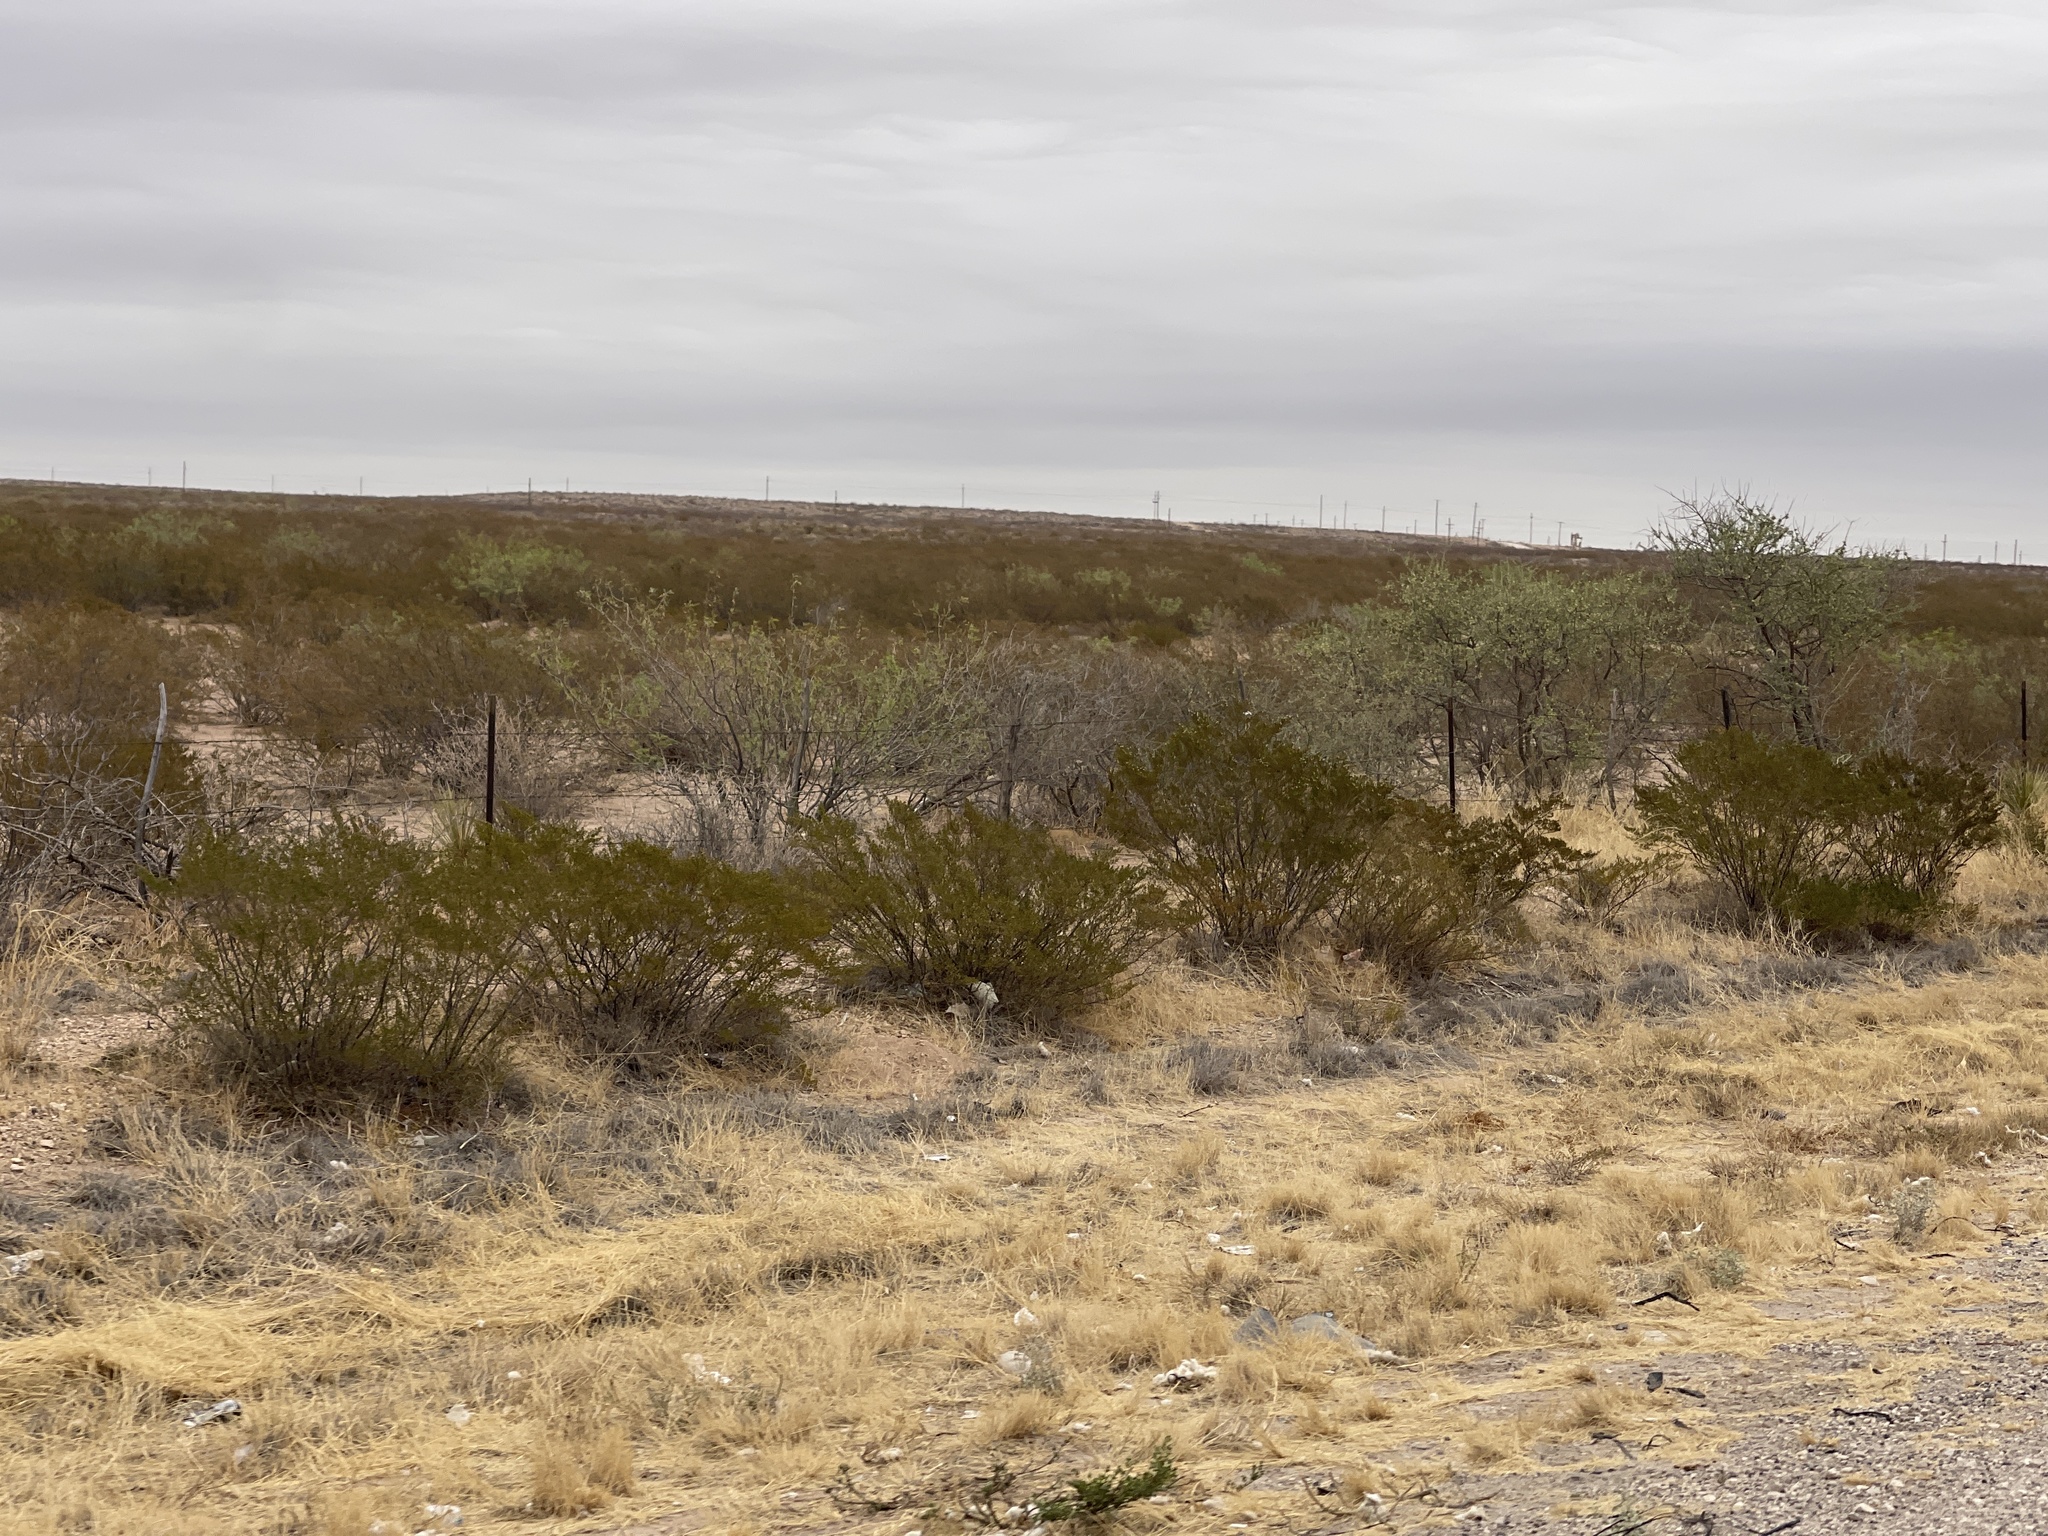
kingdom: Plantae
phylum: Tracheophyta
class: Magnoliopsida
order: Zygophyllales
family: Zygophyllaceae
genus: Larrea
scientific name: Larrea tridentata
